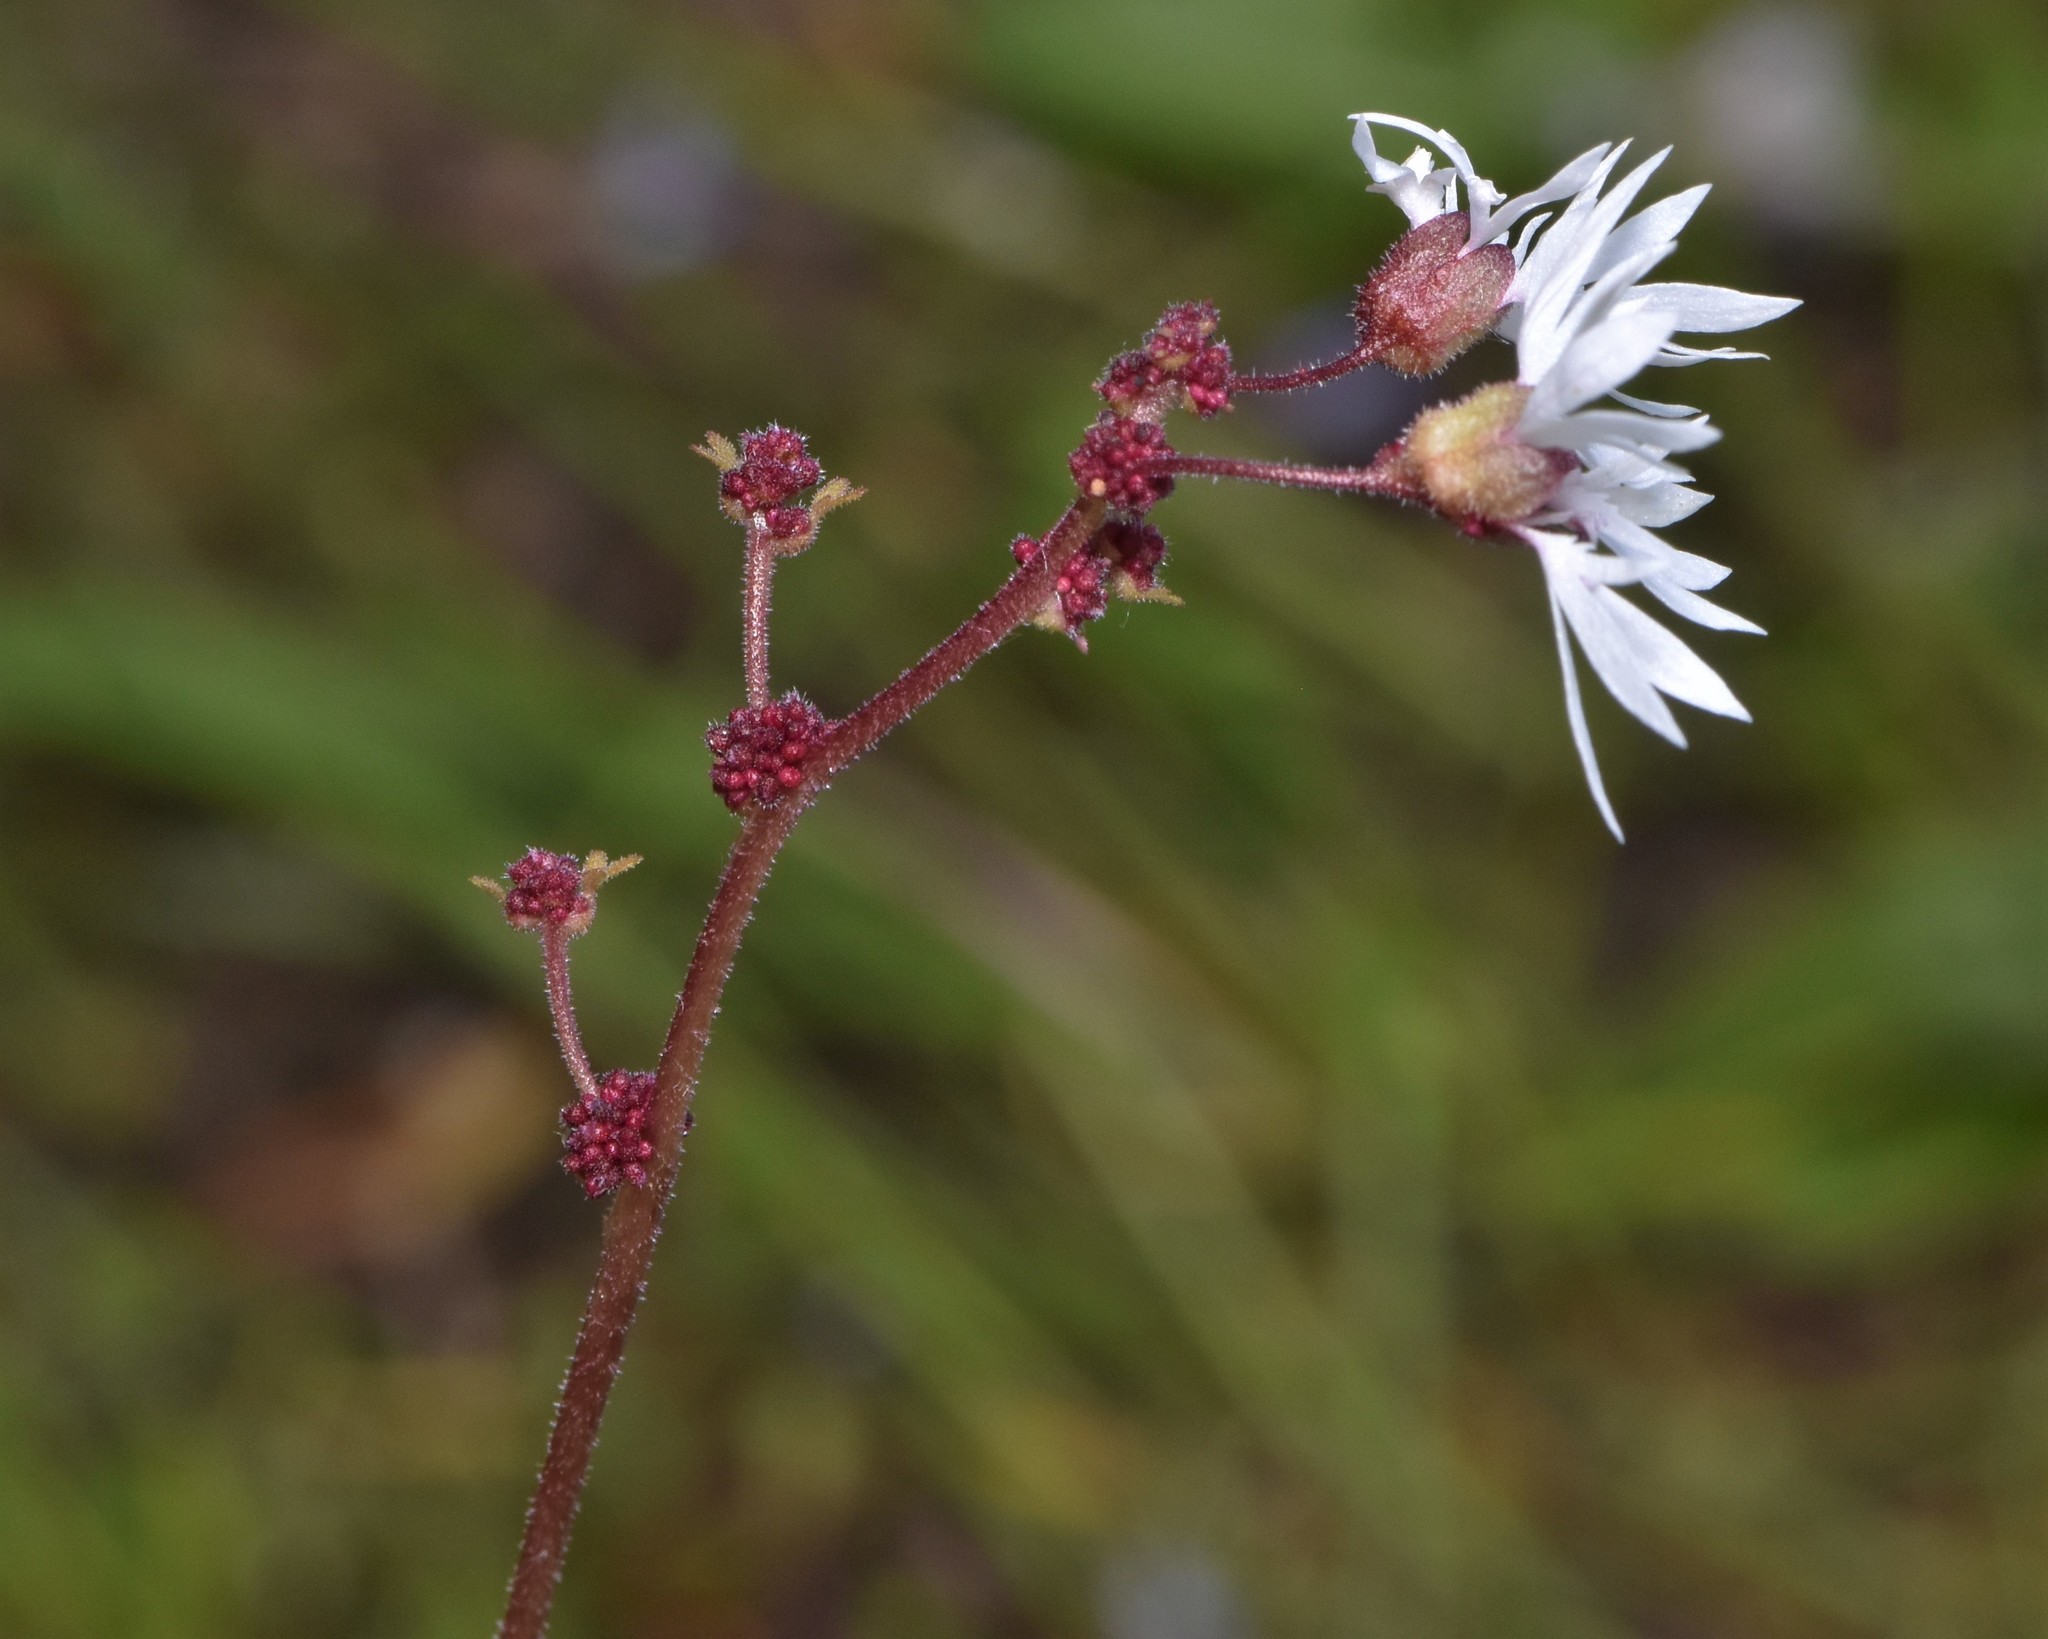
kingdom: Plantae
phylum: Tracheophyta
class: Magnoliopsida
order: Saxifragales
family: Saxifragaceae
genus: Lithophragma
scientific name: Lithophragma glabrum
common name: Bulbous prairie-star
